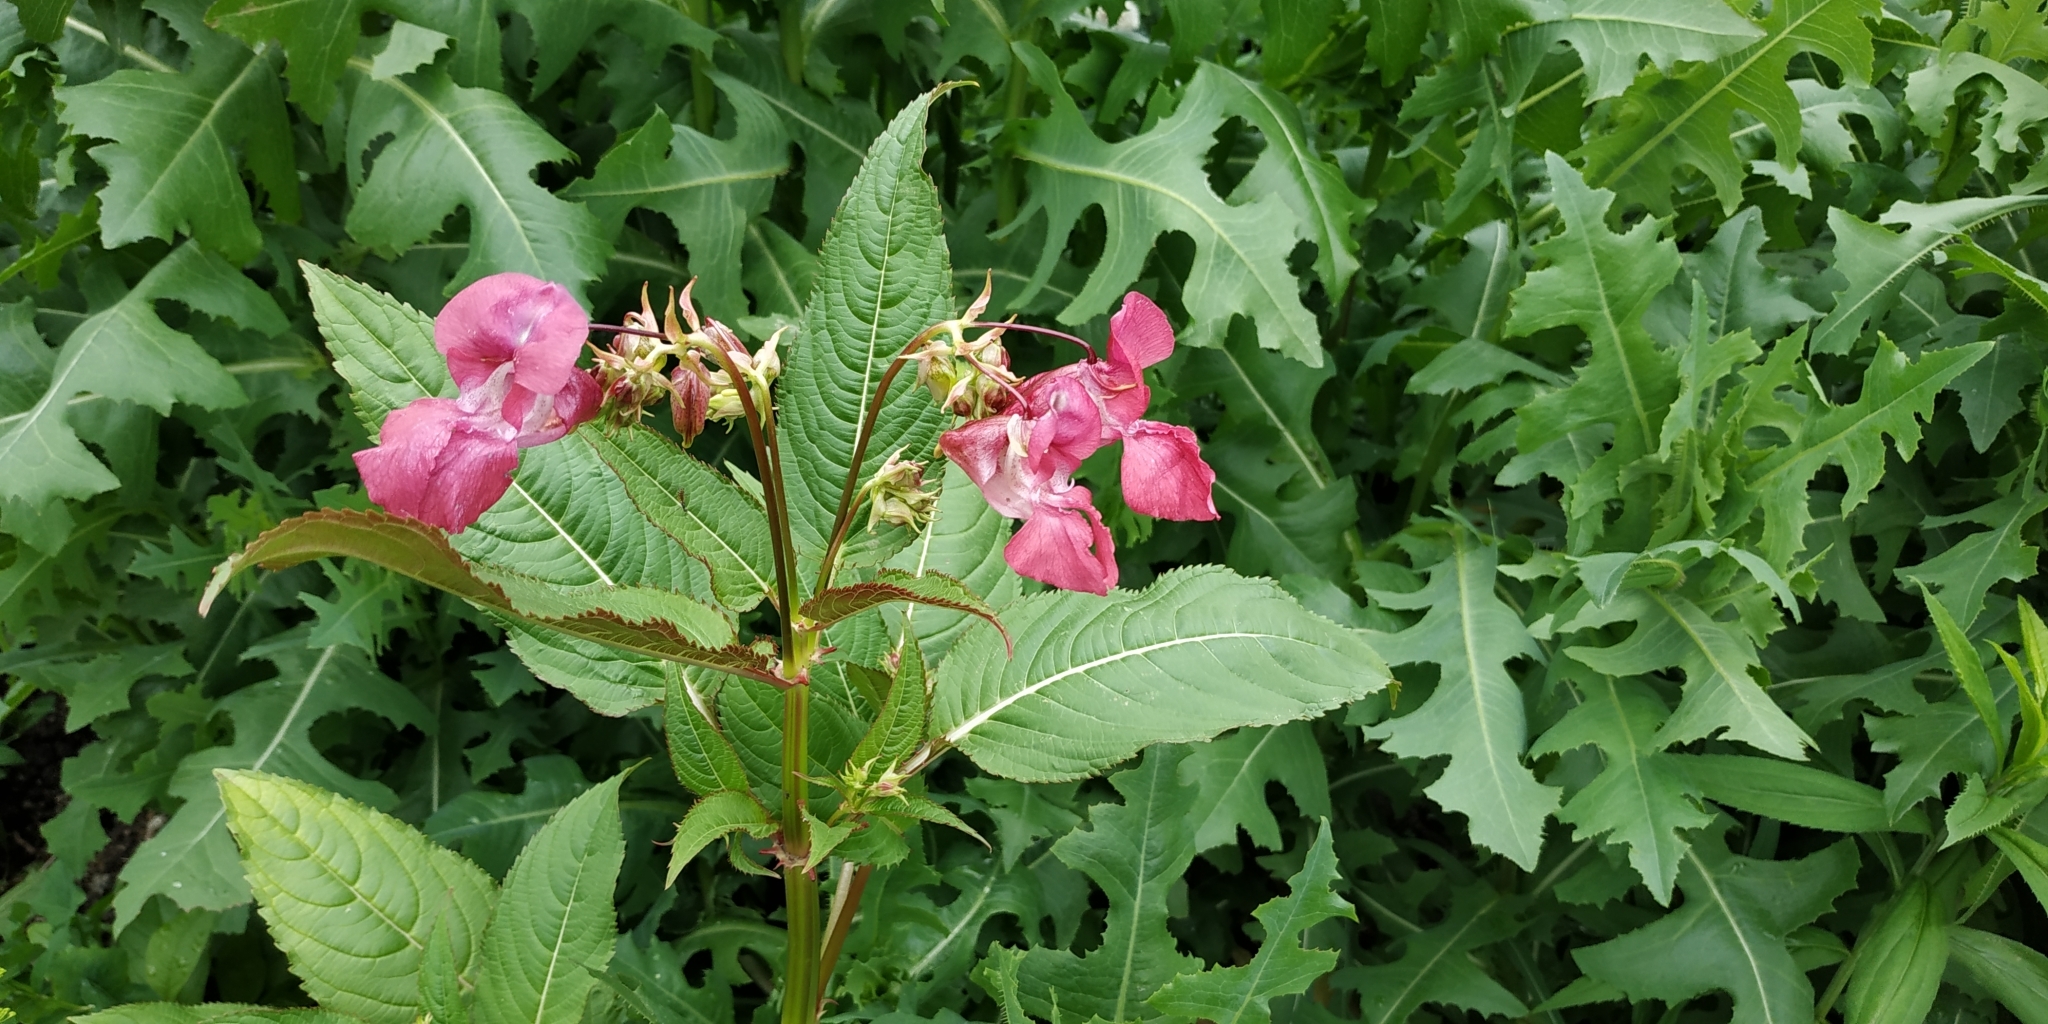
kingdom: Plantae
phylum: Tracheophyta
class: Magnoliopsida
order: Ericales
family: Balsaminaceae
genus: Impatiens
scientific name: Impatiens glandulifera
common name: Himalayan balsam
